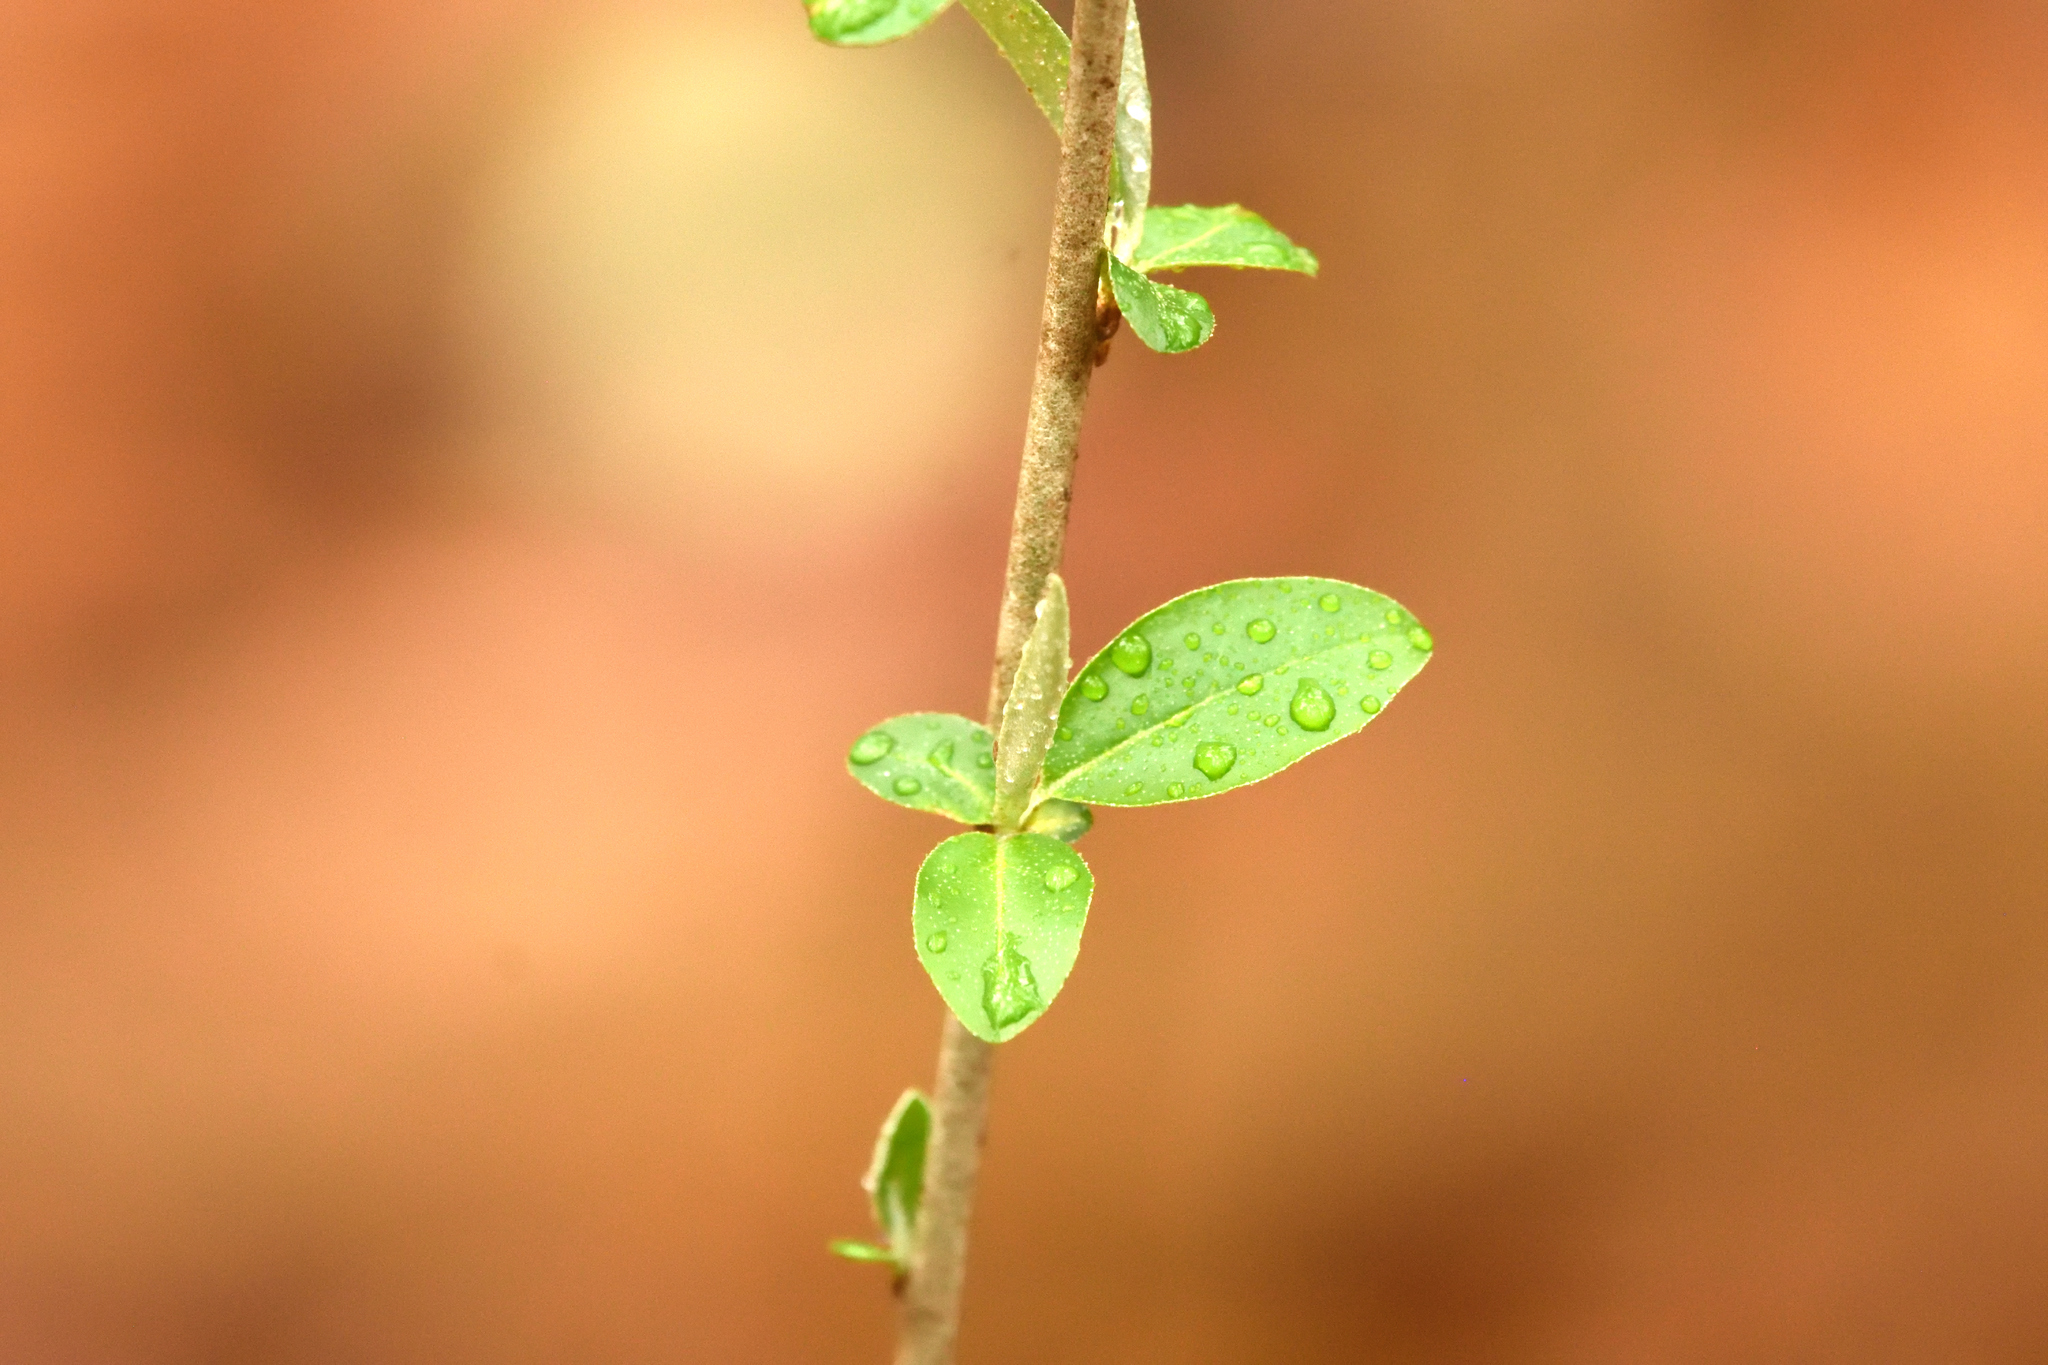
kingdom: Plantae
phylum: Tracheophyta
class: Magnoliopsida
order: Rosales
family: Elaeagnaceae
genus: Elaeagnus
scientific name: Elaeagnus umbellata
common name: Autumn olive
